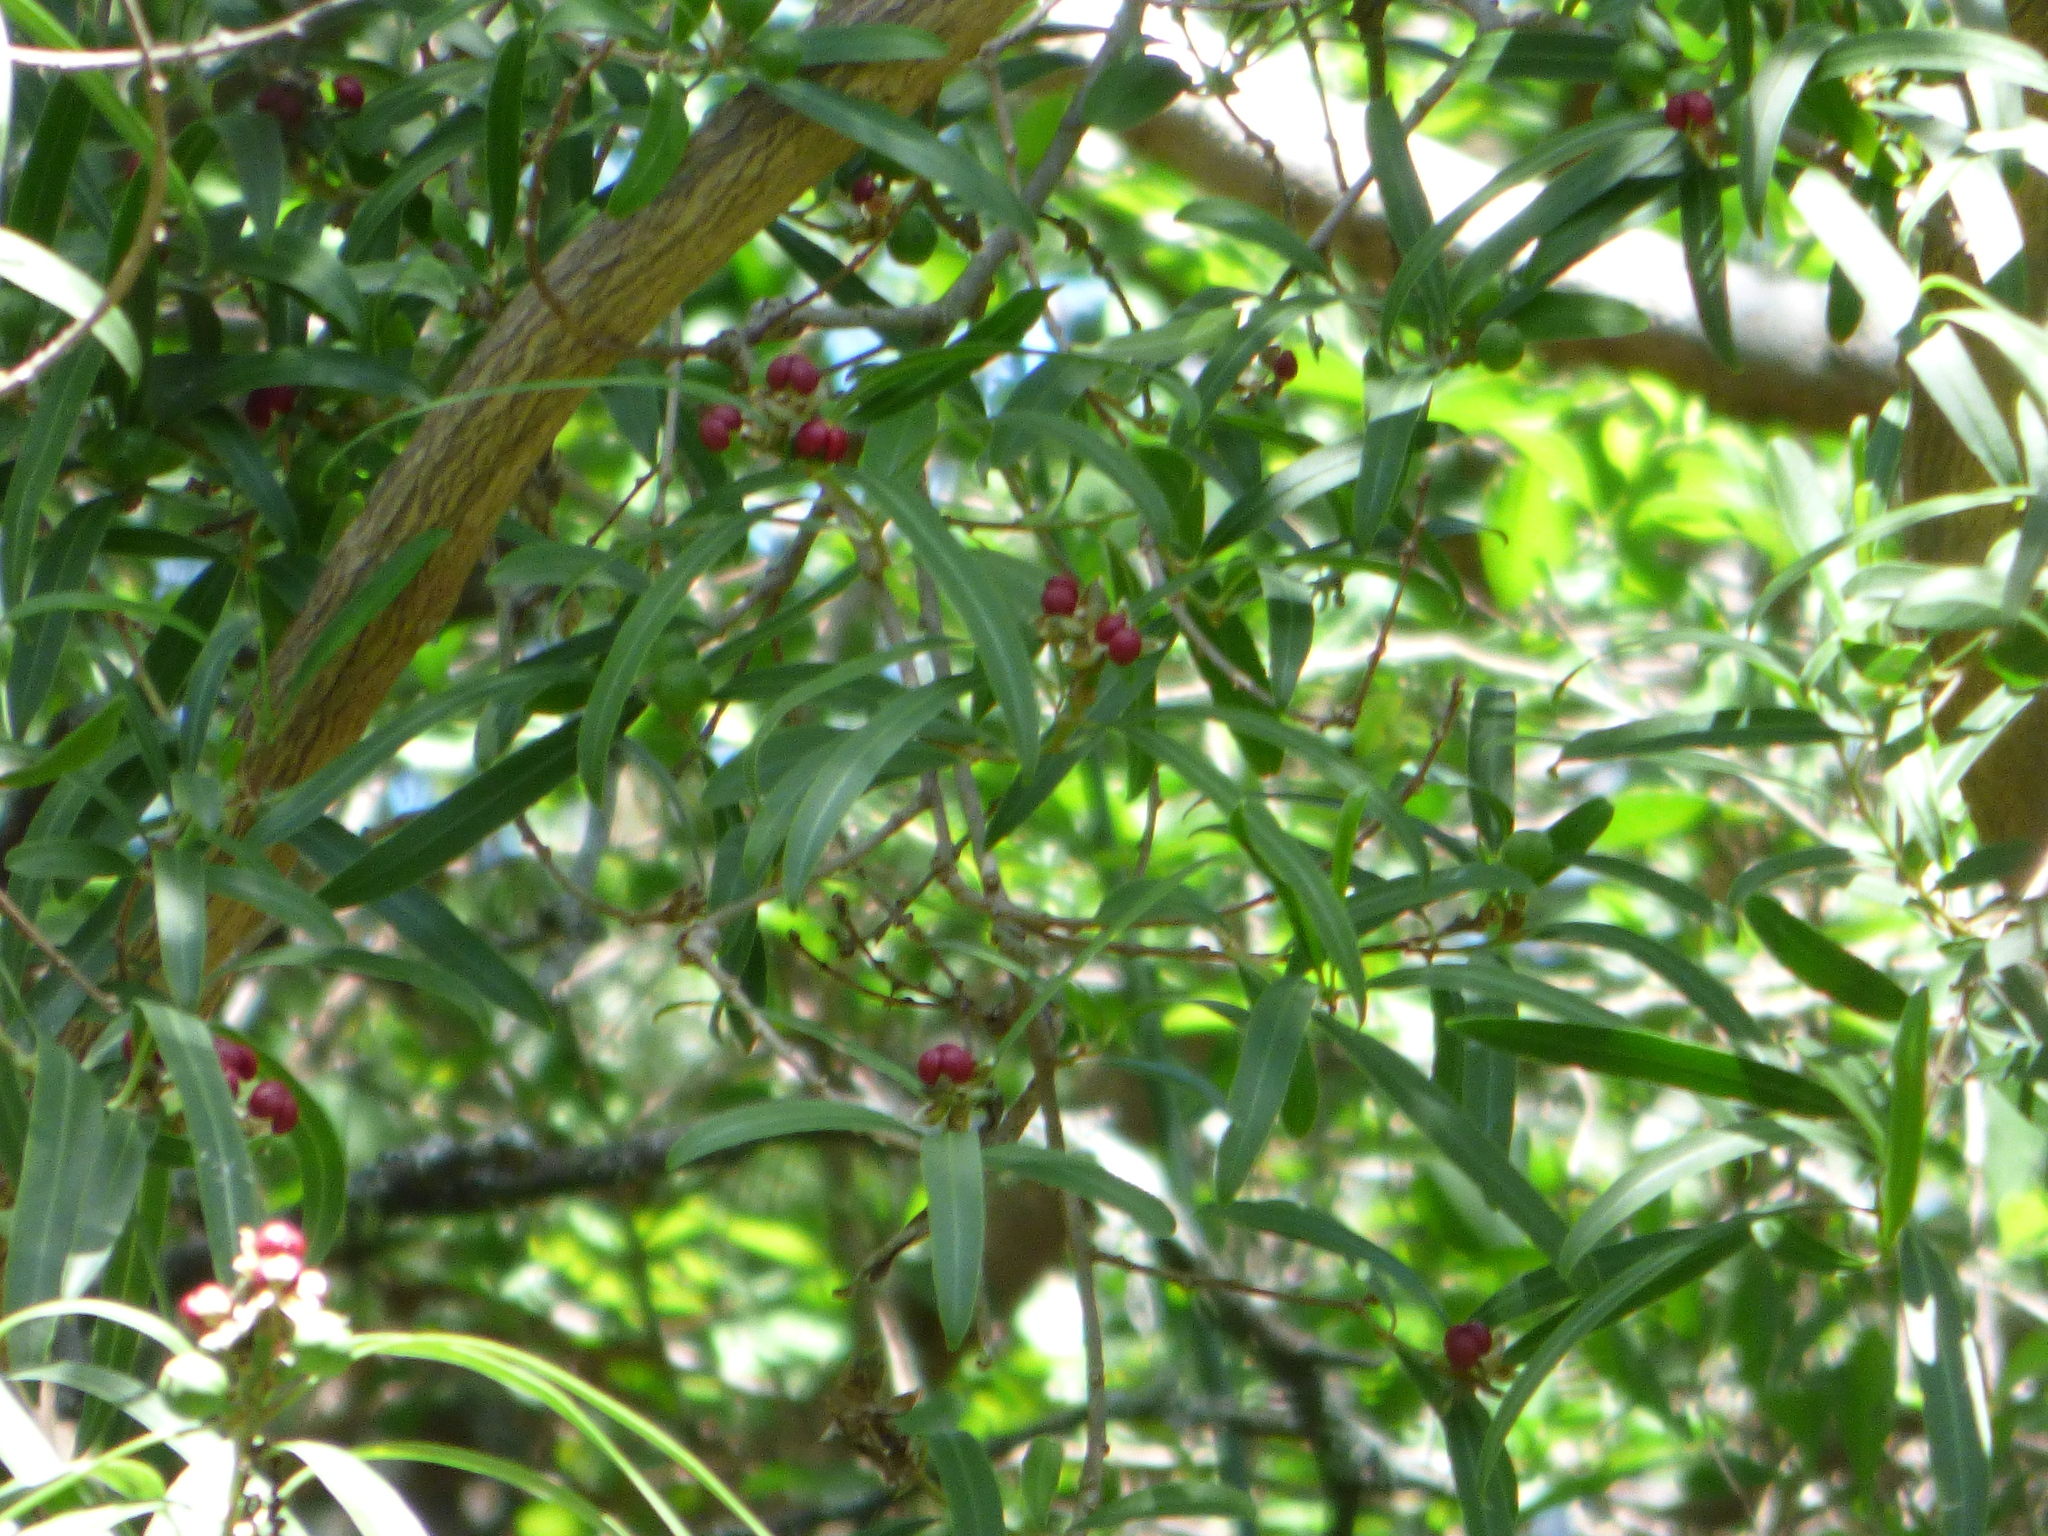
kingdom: Plantae
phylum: Tracheophyta
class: Magnoliopsida
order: Malpighiales
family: Euphorbiaceae
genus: Sapium
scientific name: Sapium haematospermum
